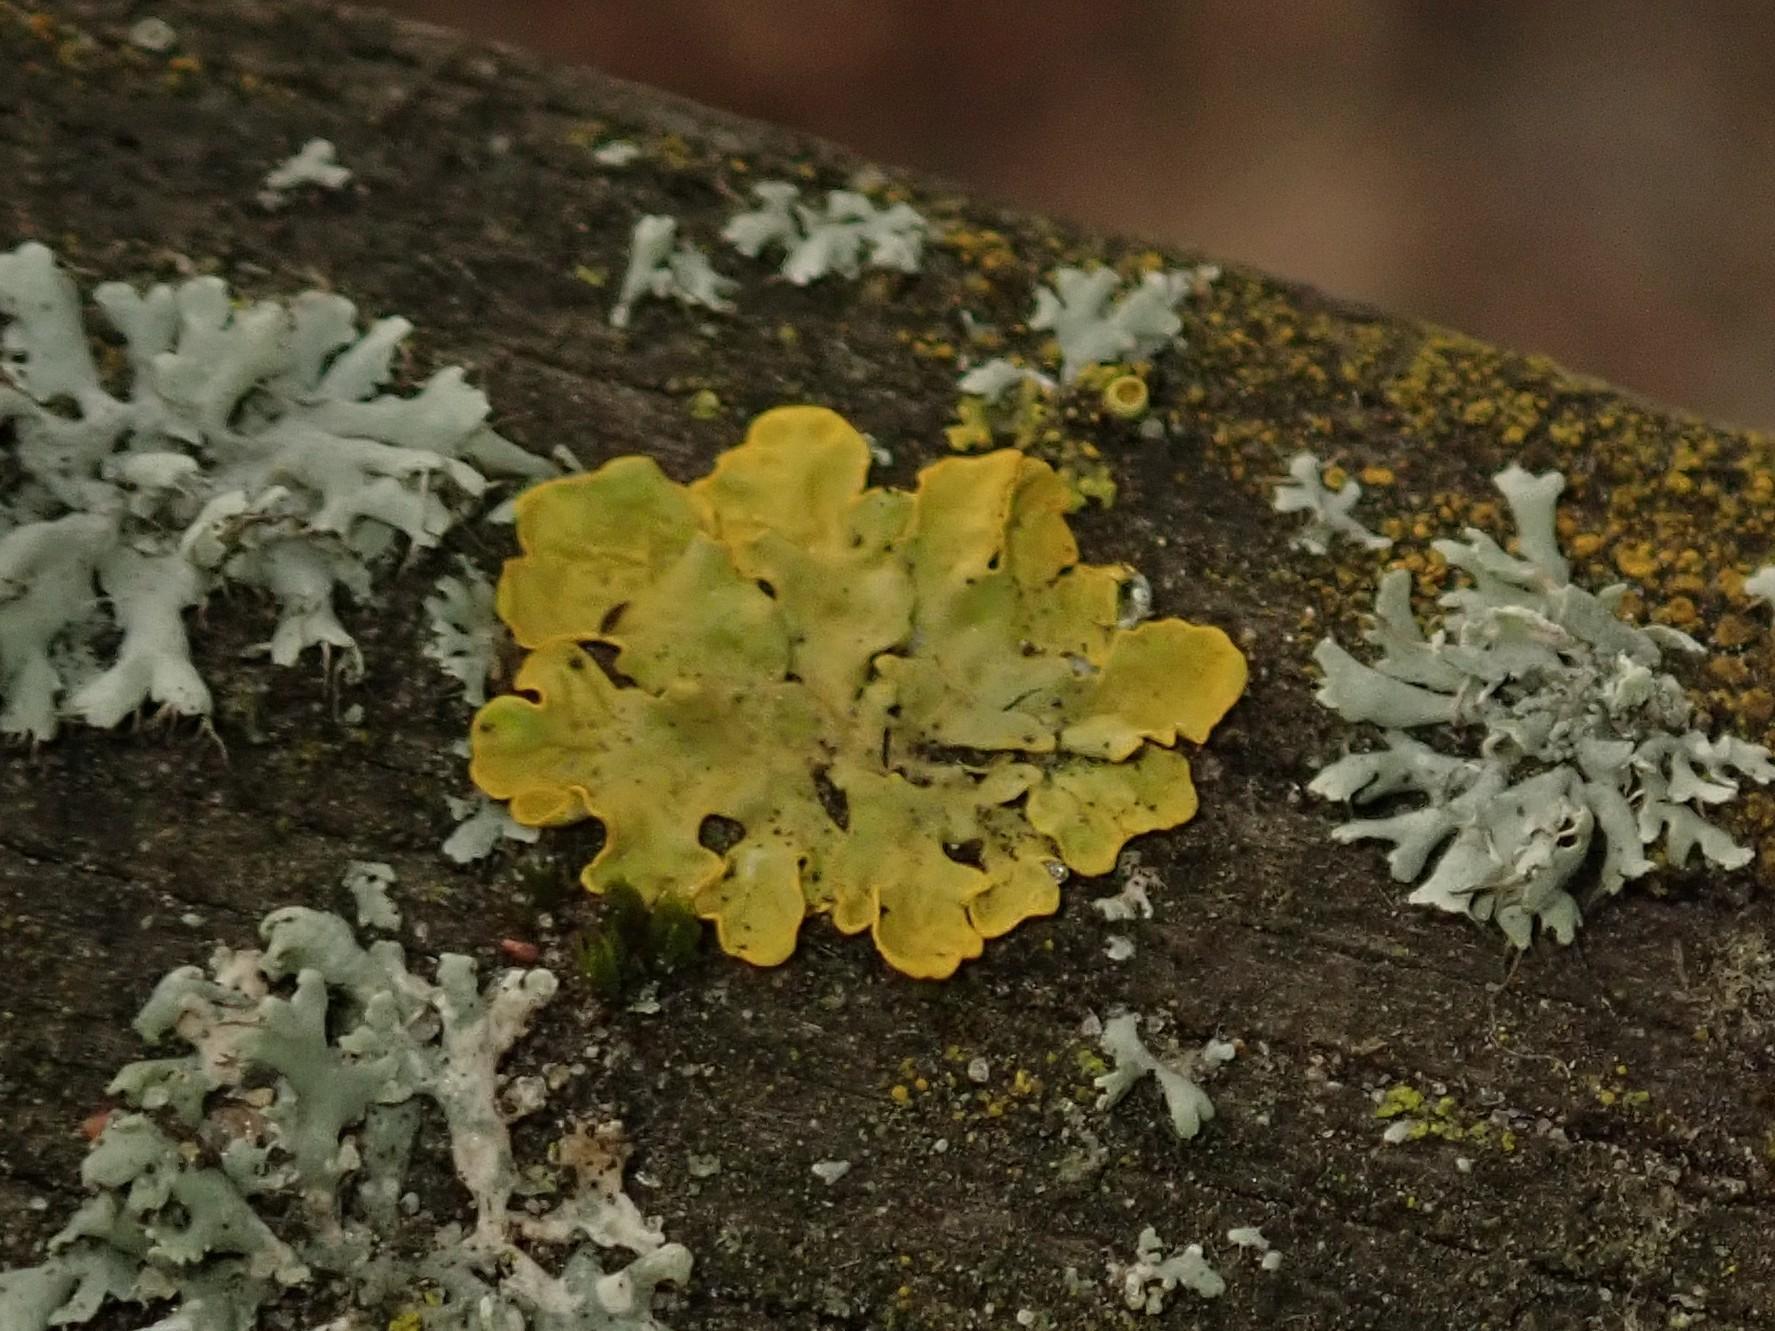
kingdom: Fungi
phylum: Ascomycota
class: Lecanoromycetes
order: Teloschistales
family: Teloschistaceae
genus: Xanthoria
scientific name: Xanthoria parietina
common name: Common orange lichen
